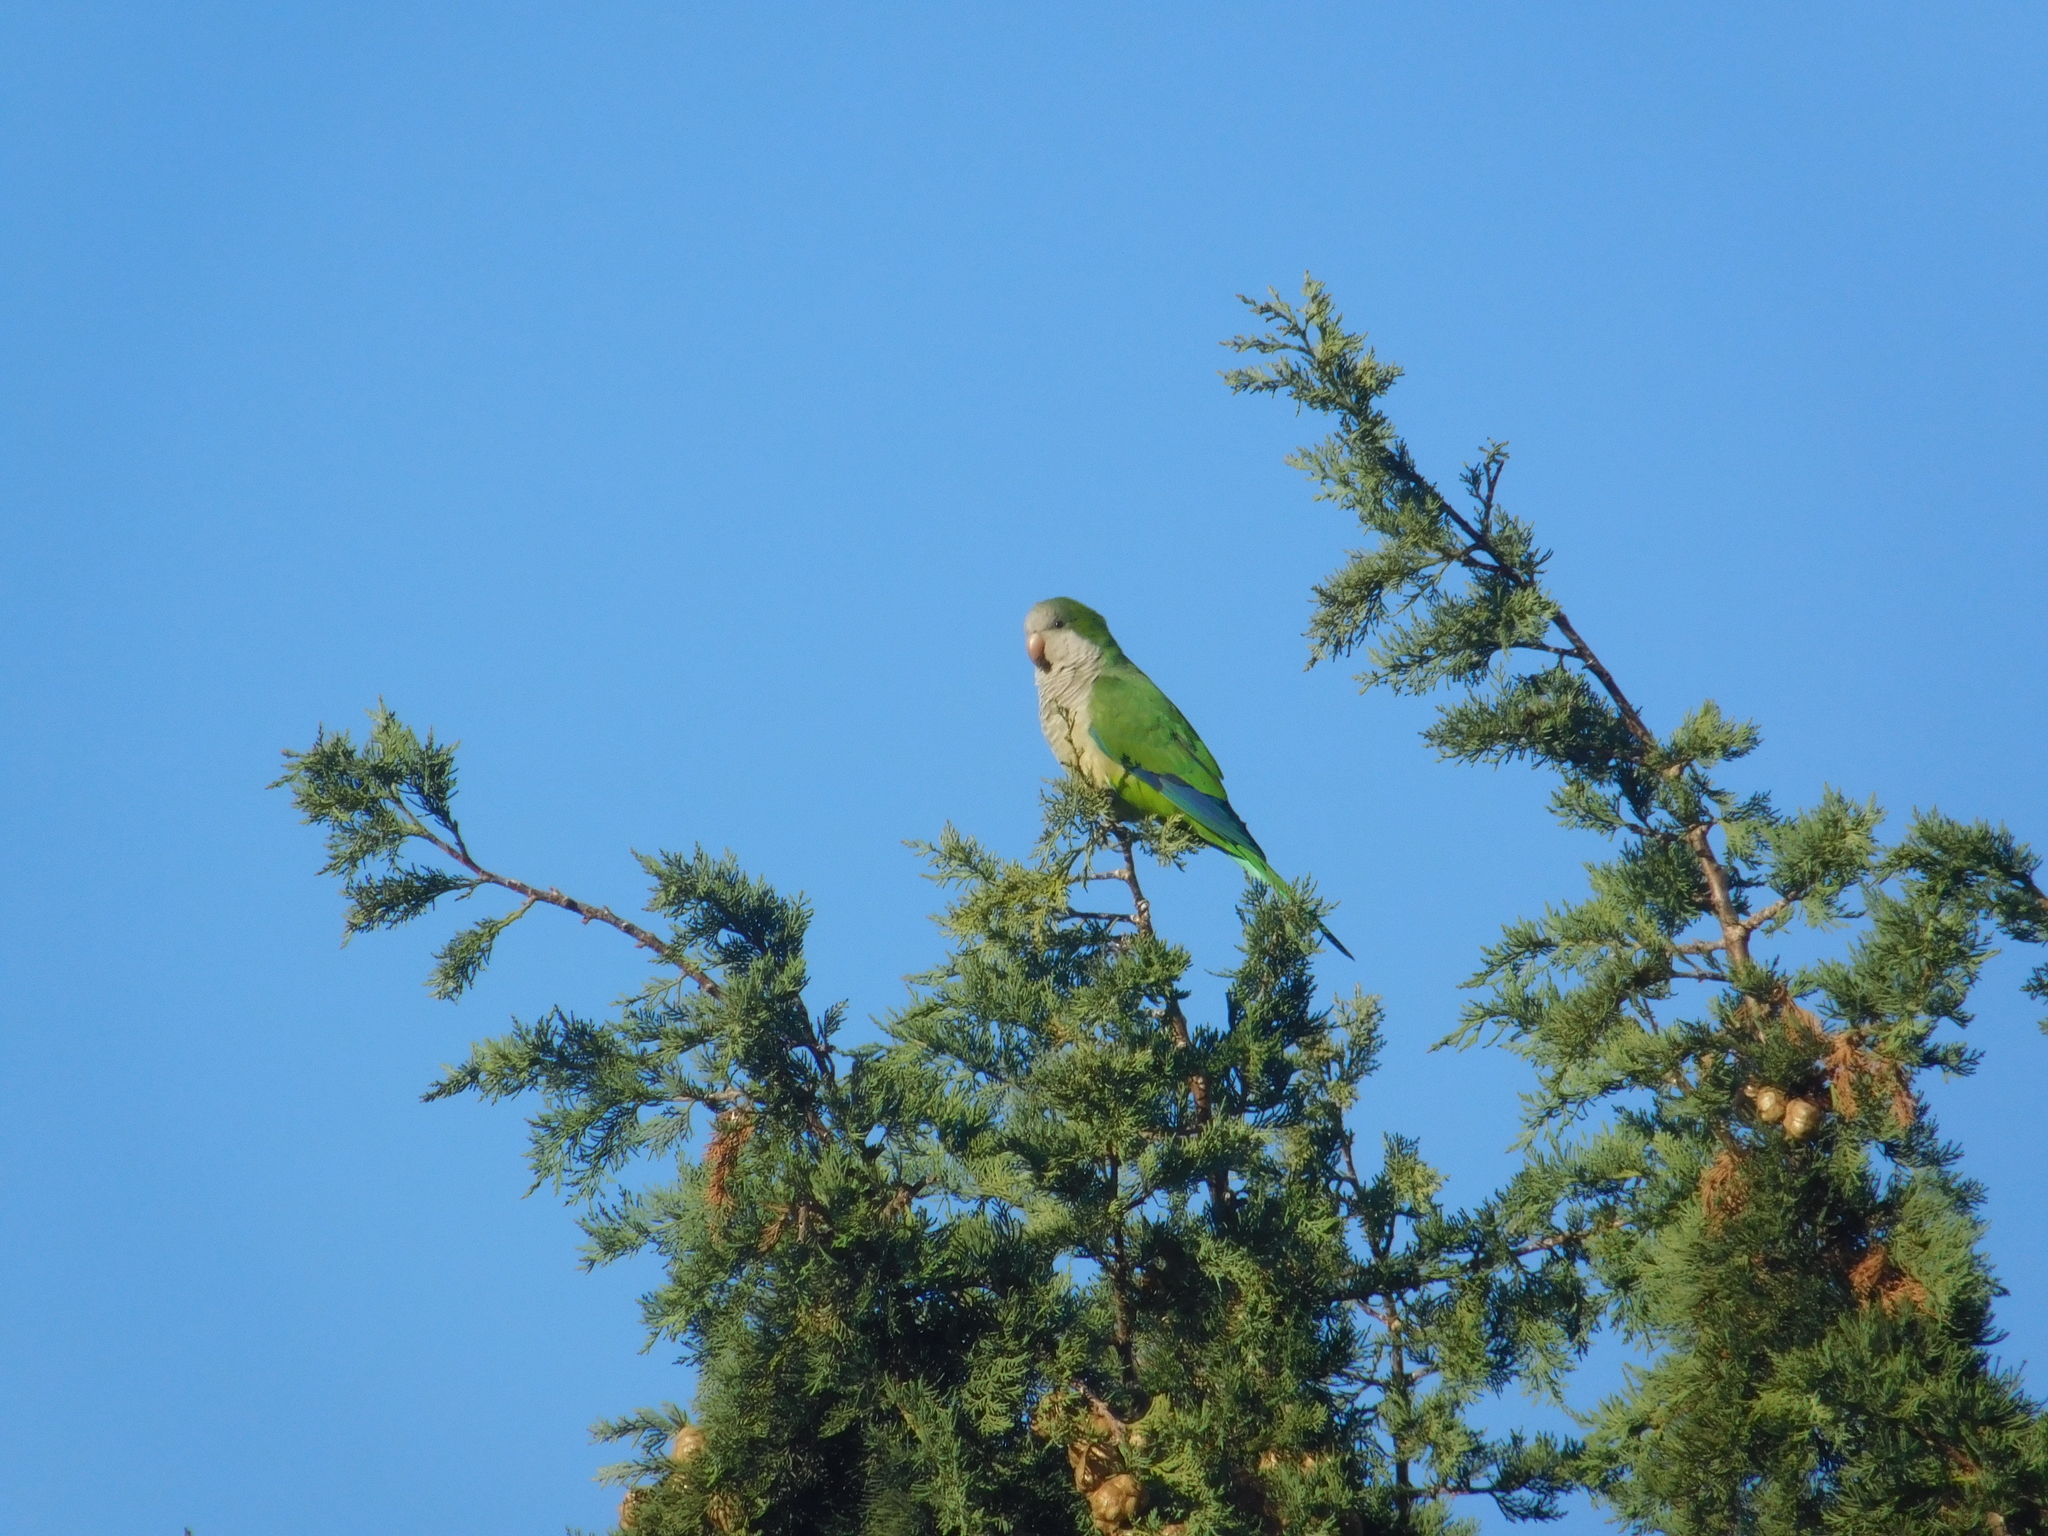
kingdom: Animalia
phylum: Chordata
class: Aves
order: Psittaciformes
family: Psittacidae
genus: Myiopsitta
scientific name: Myiopsitta monachus
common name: Monk parakeet
